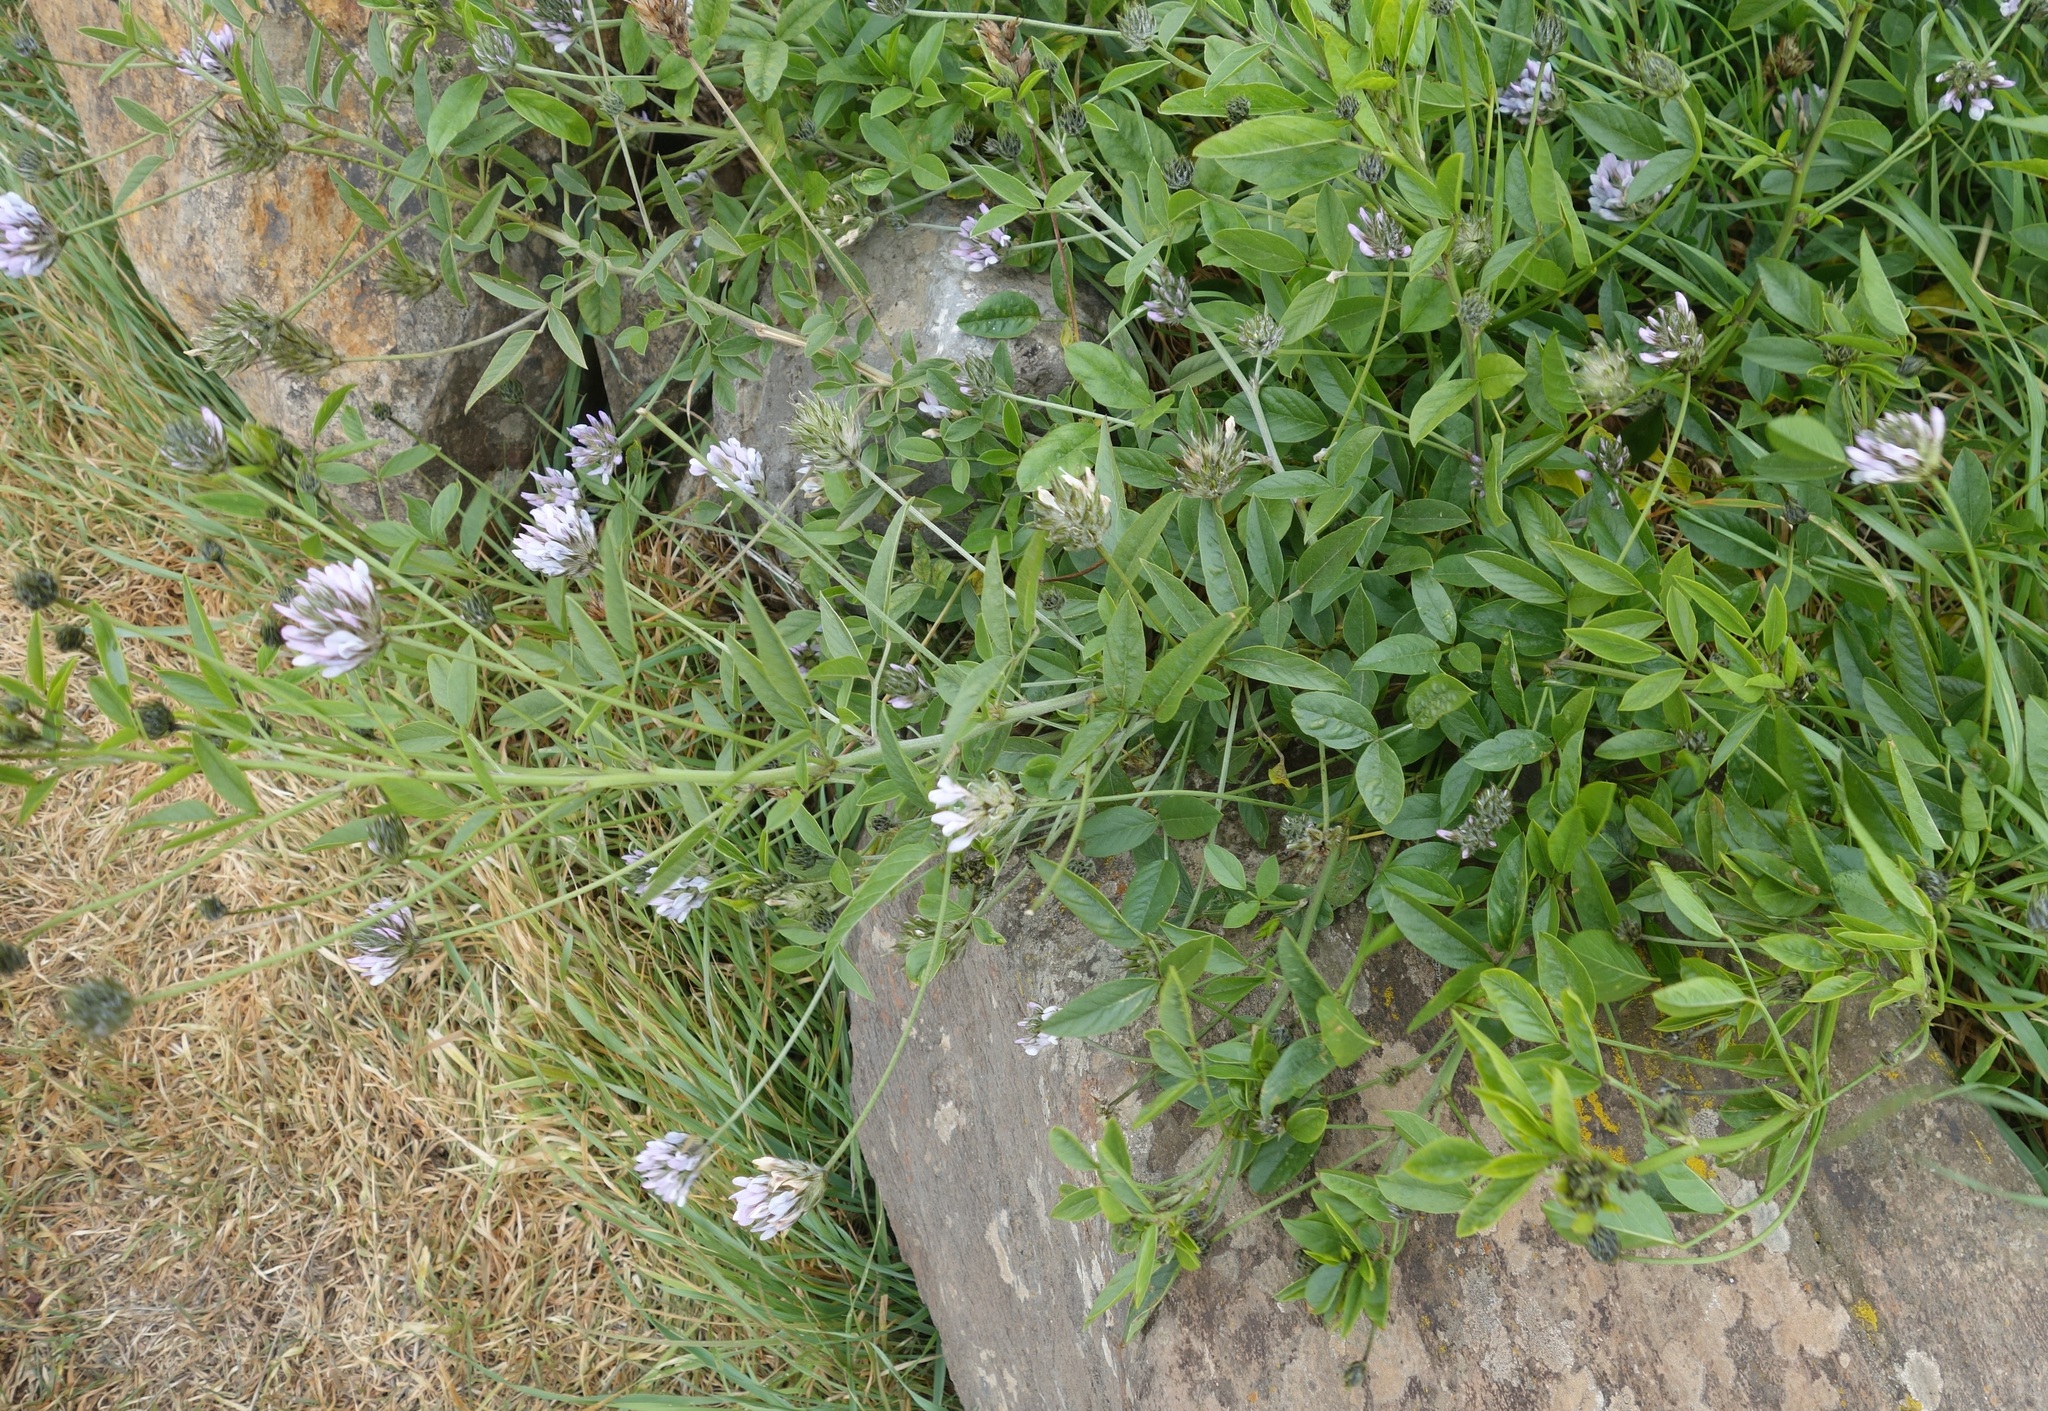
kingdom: Plantae
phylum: Tracheophyta
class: Magnoliopsida
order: Fabales
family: Fabaceae
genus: Bituminaria
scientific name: Bituminaria bituminosa
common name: Arabian pea
